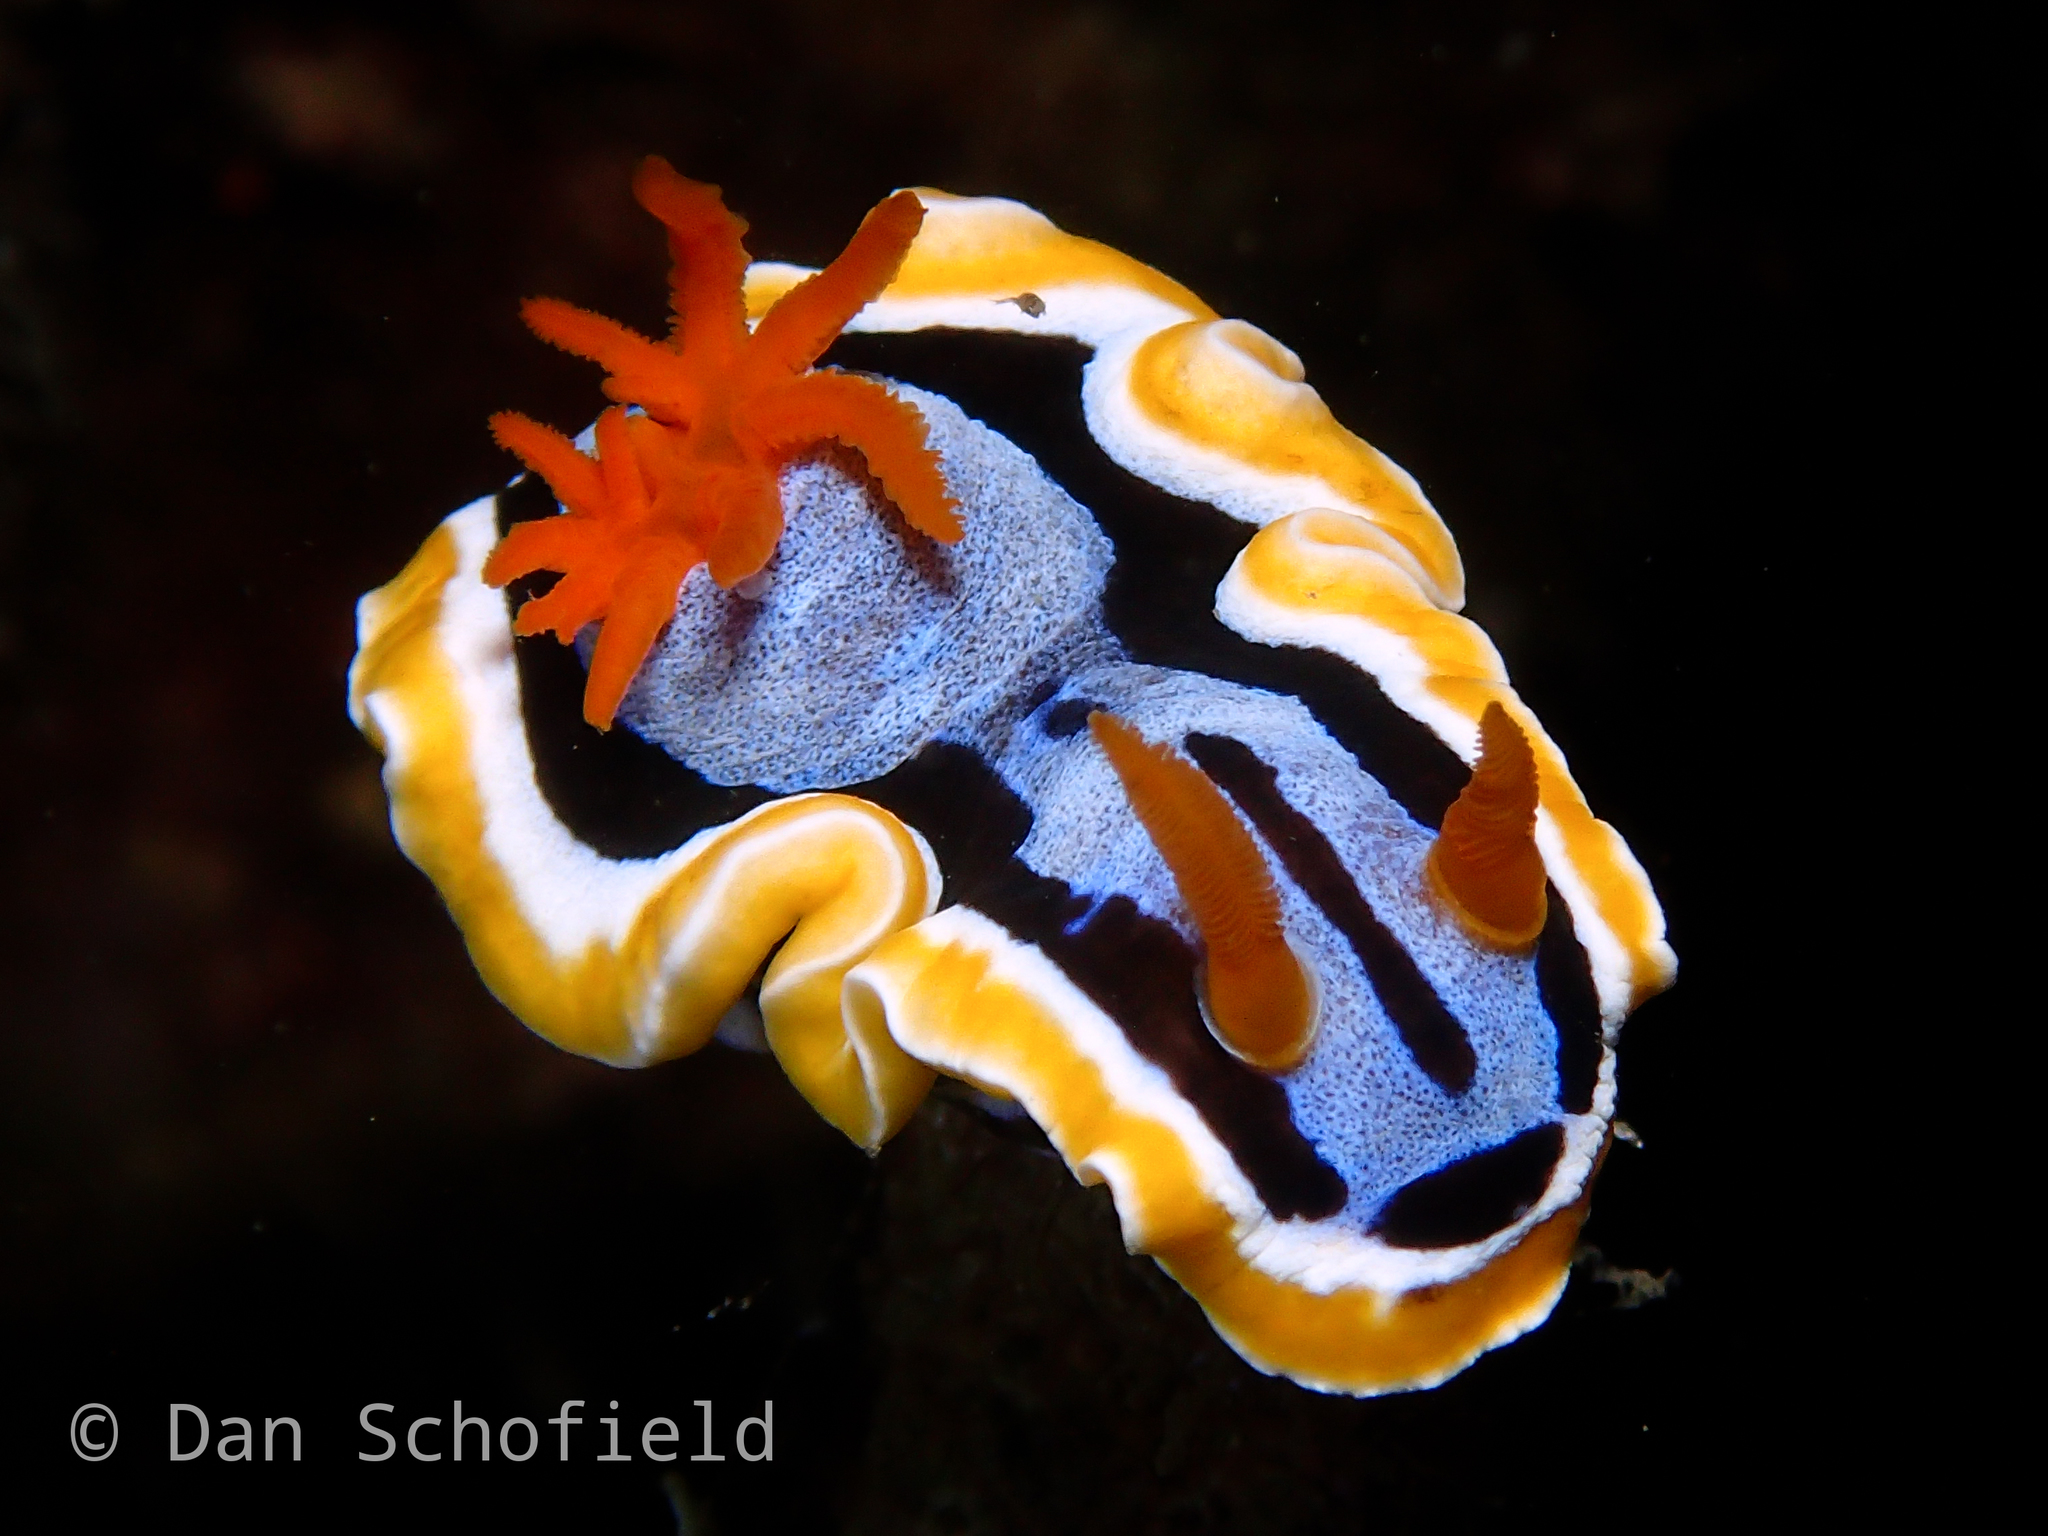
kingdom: Animalia
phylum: Mollusca
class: Gastropoda
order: Nudibranchia
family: Chromodorididae
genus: Chromodoris
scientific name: Chromodoris annae
